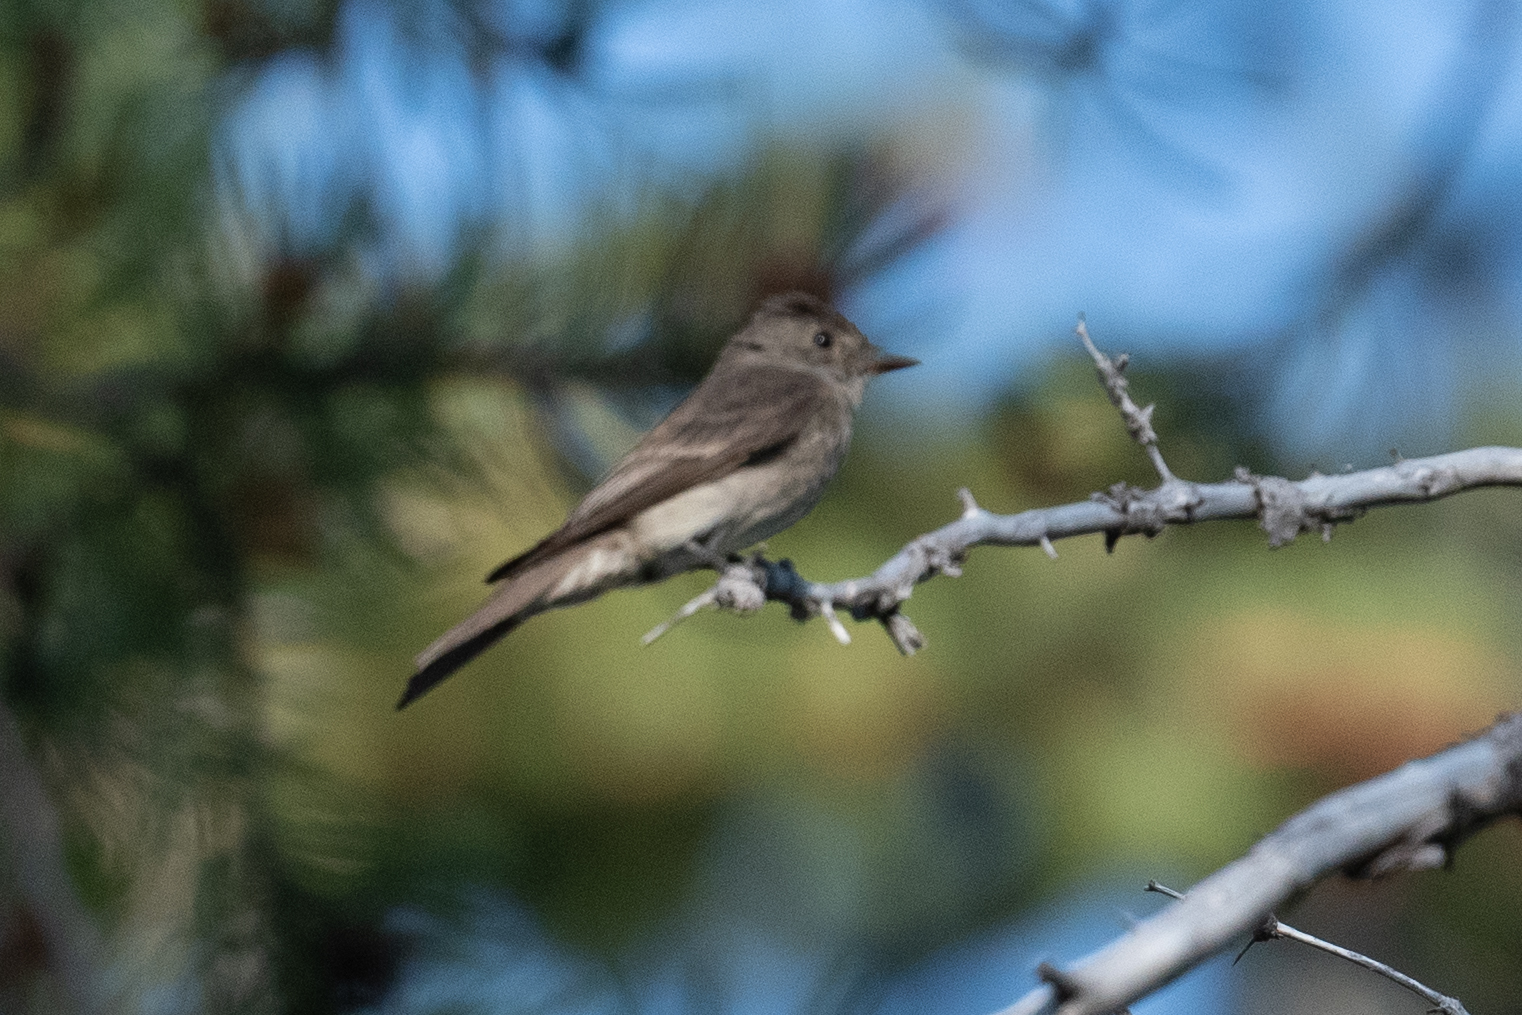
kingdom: Animalia
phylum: Chordata
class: Aves
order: Passeriformes
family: Tyrannidae
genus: Contopus
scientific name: Contopus sordidulus
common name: Western wood-pewee
